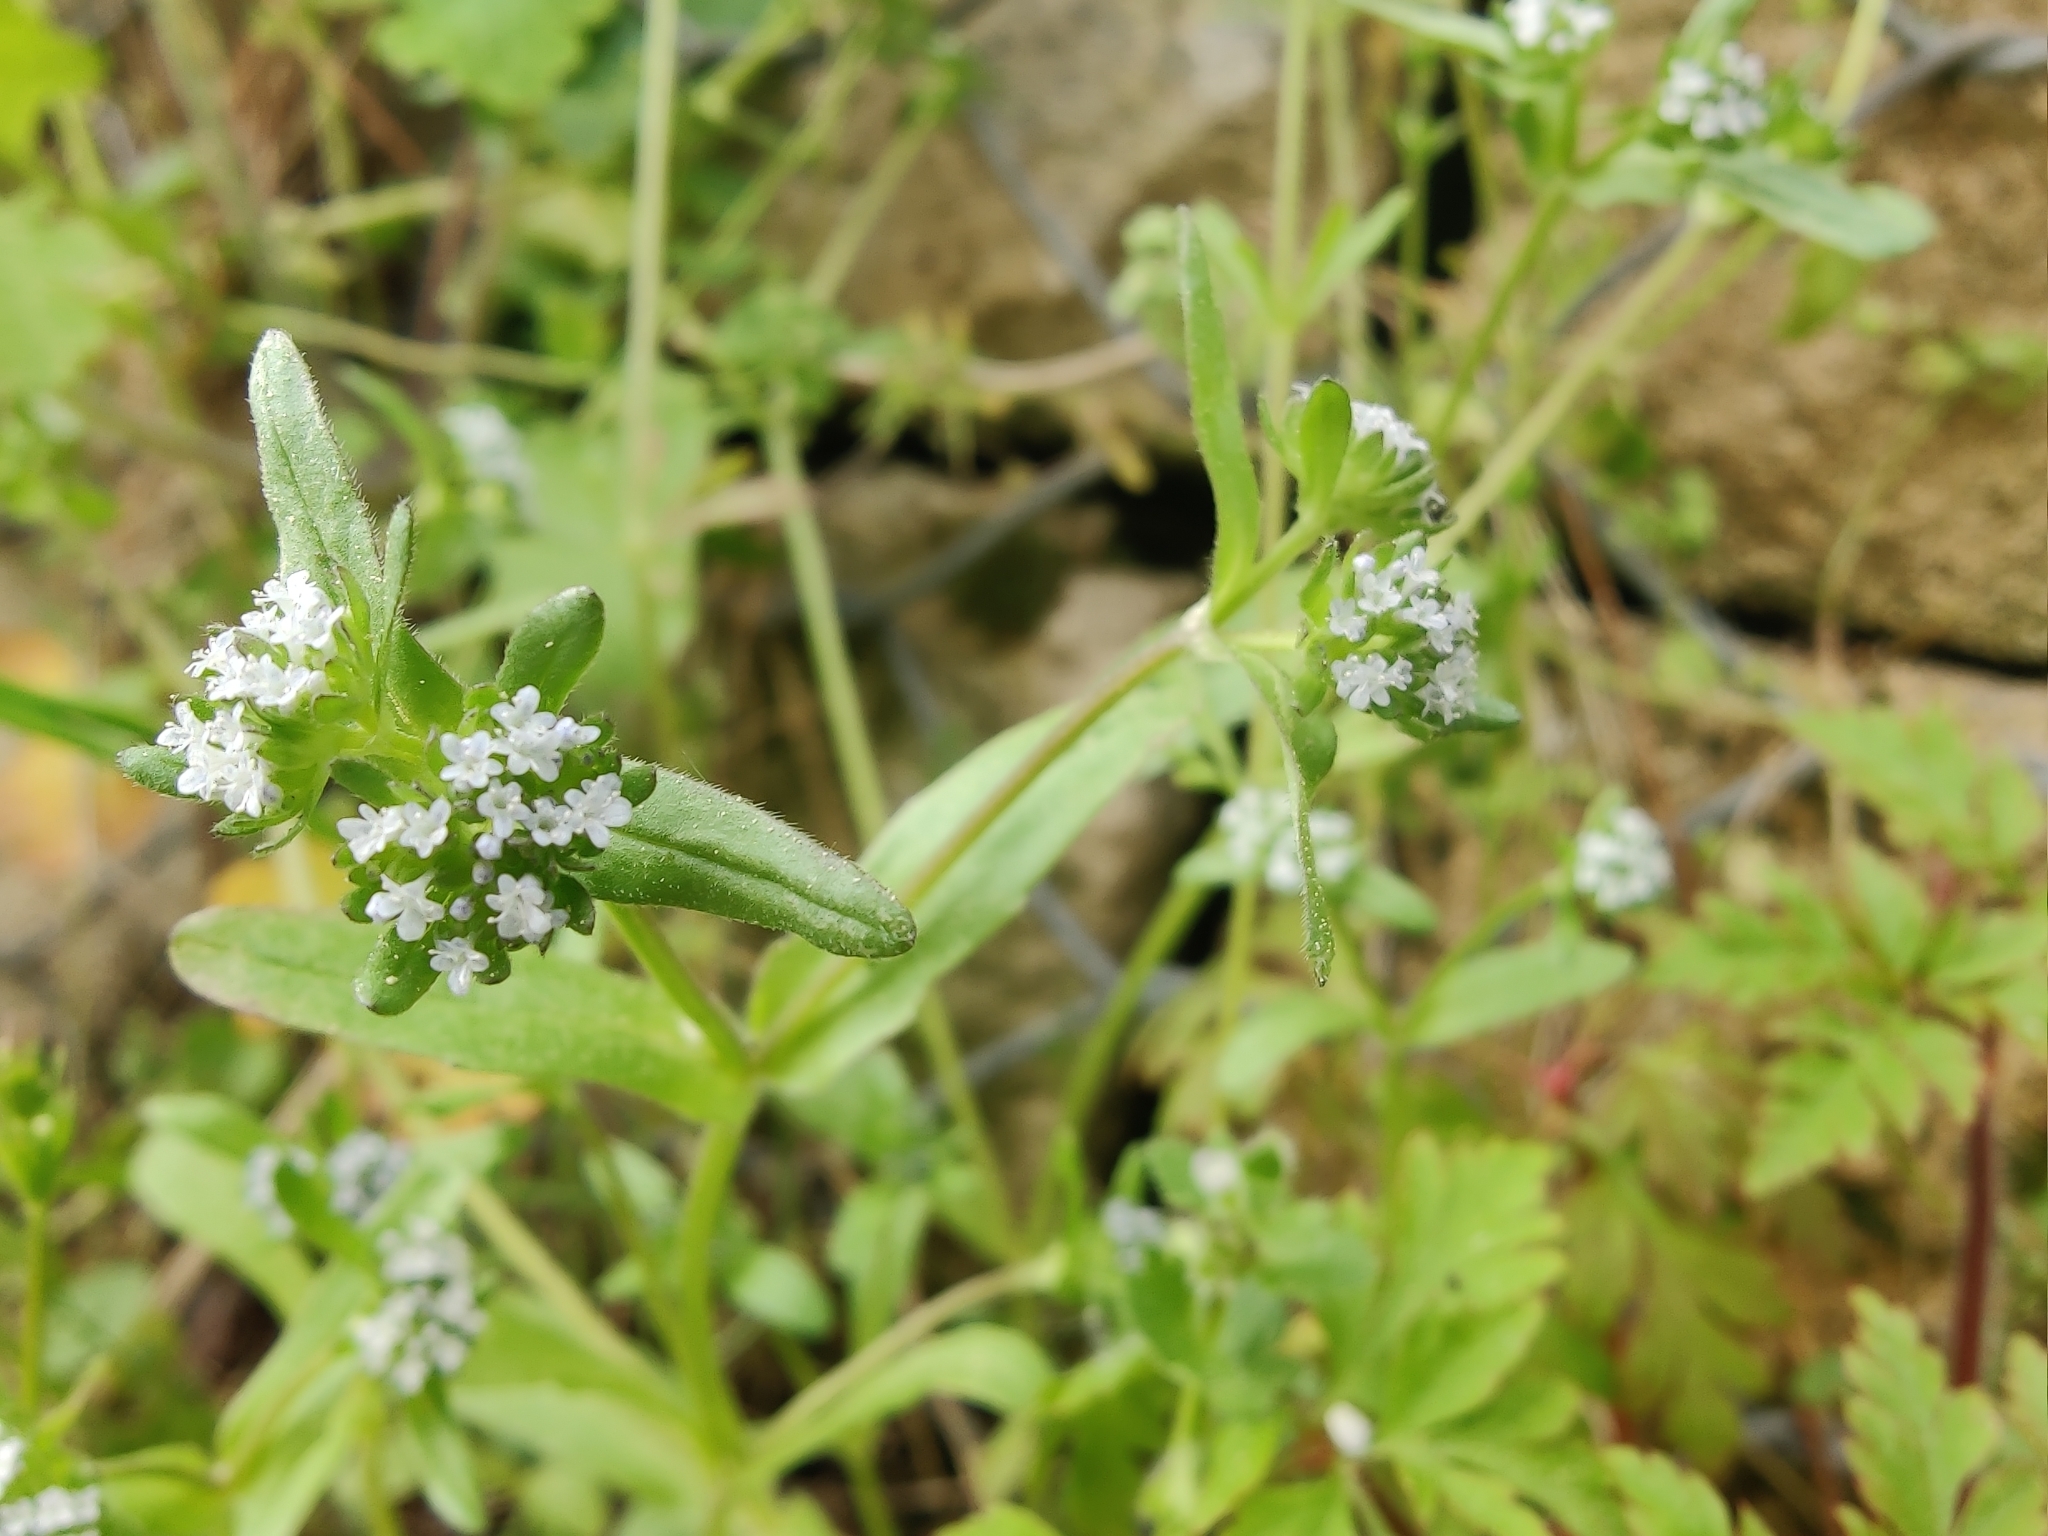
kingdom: Plantae
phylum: Tracheophyta
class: Magnoliopsida
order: Dipsacales
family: Caprifoliaceae
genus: Valerianella
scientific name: Valerianella locusta
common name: Common cornsalad
